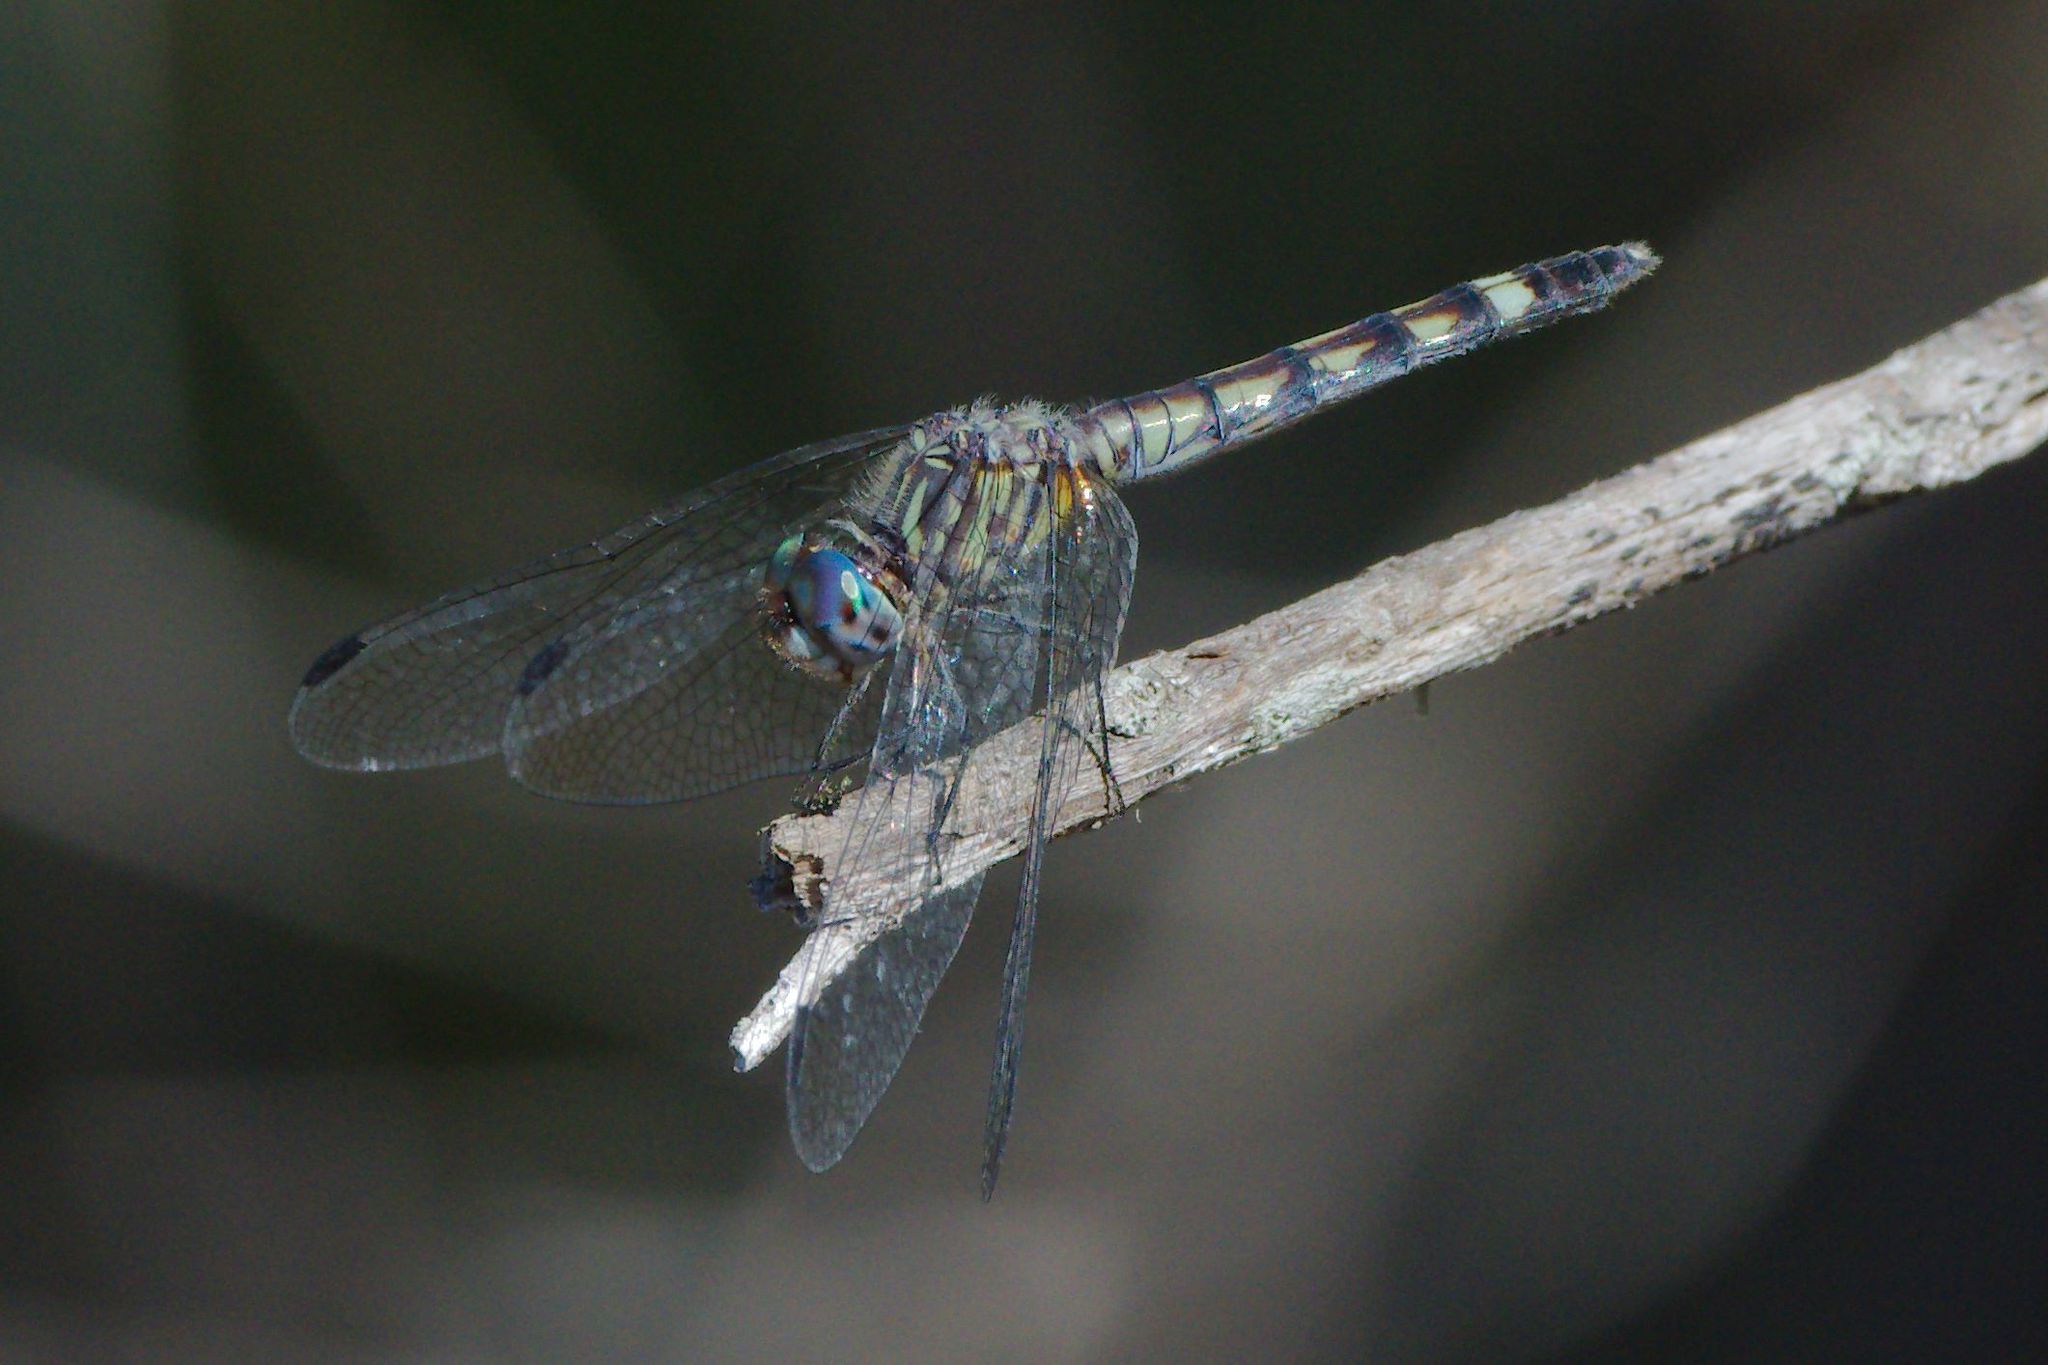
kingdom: Animalia
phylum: Arthropoda
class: Insecta
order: Odonata
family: Libellulidae
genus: Micrathyria
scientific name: Micrathyria hagenii
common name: Thornbush dasher
